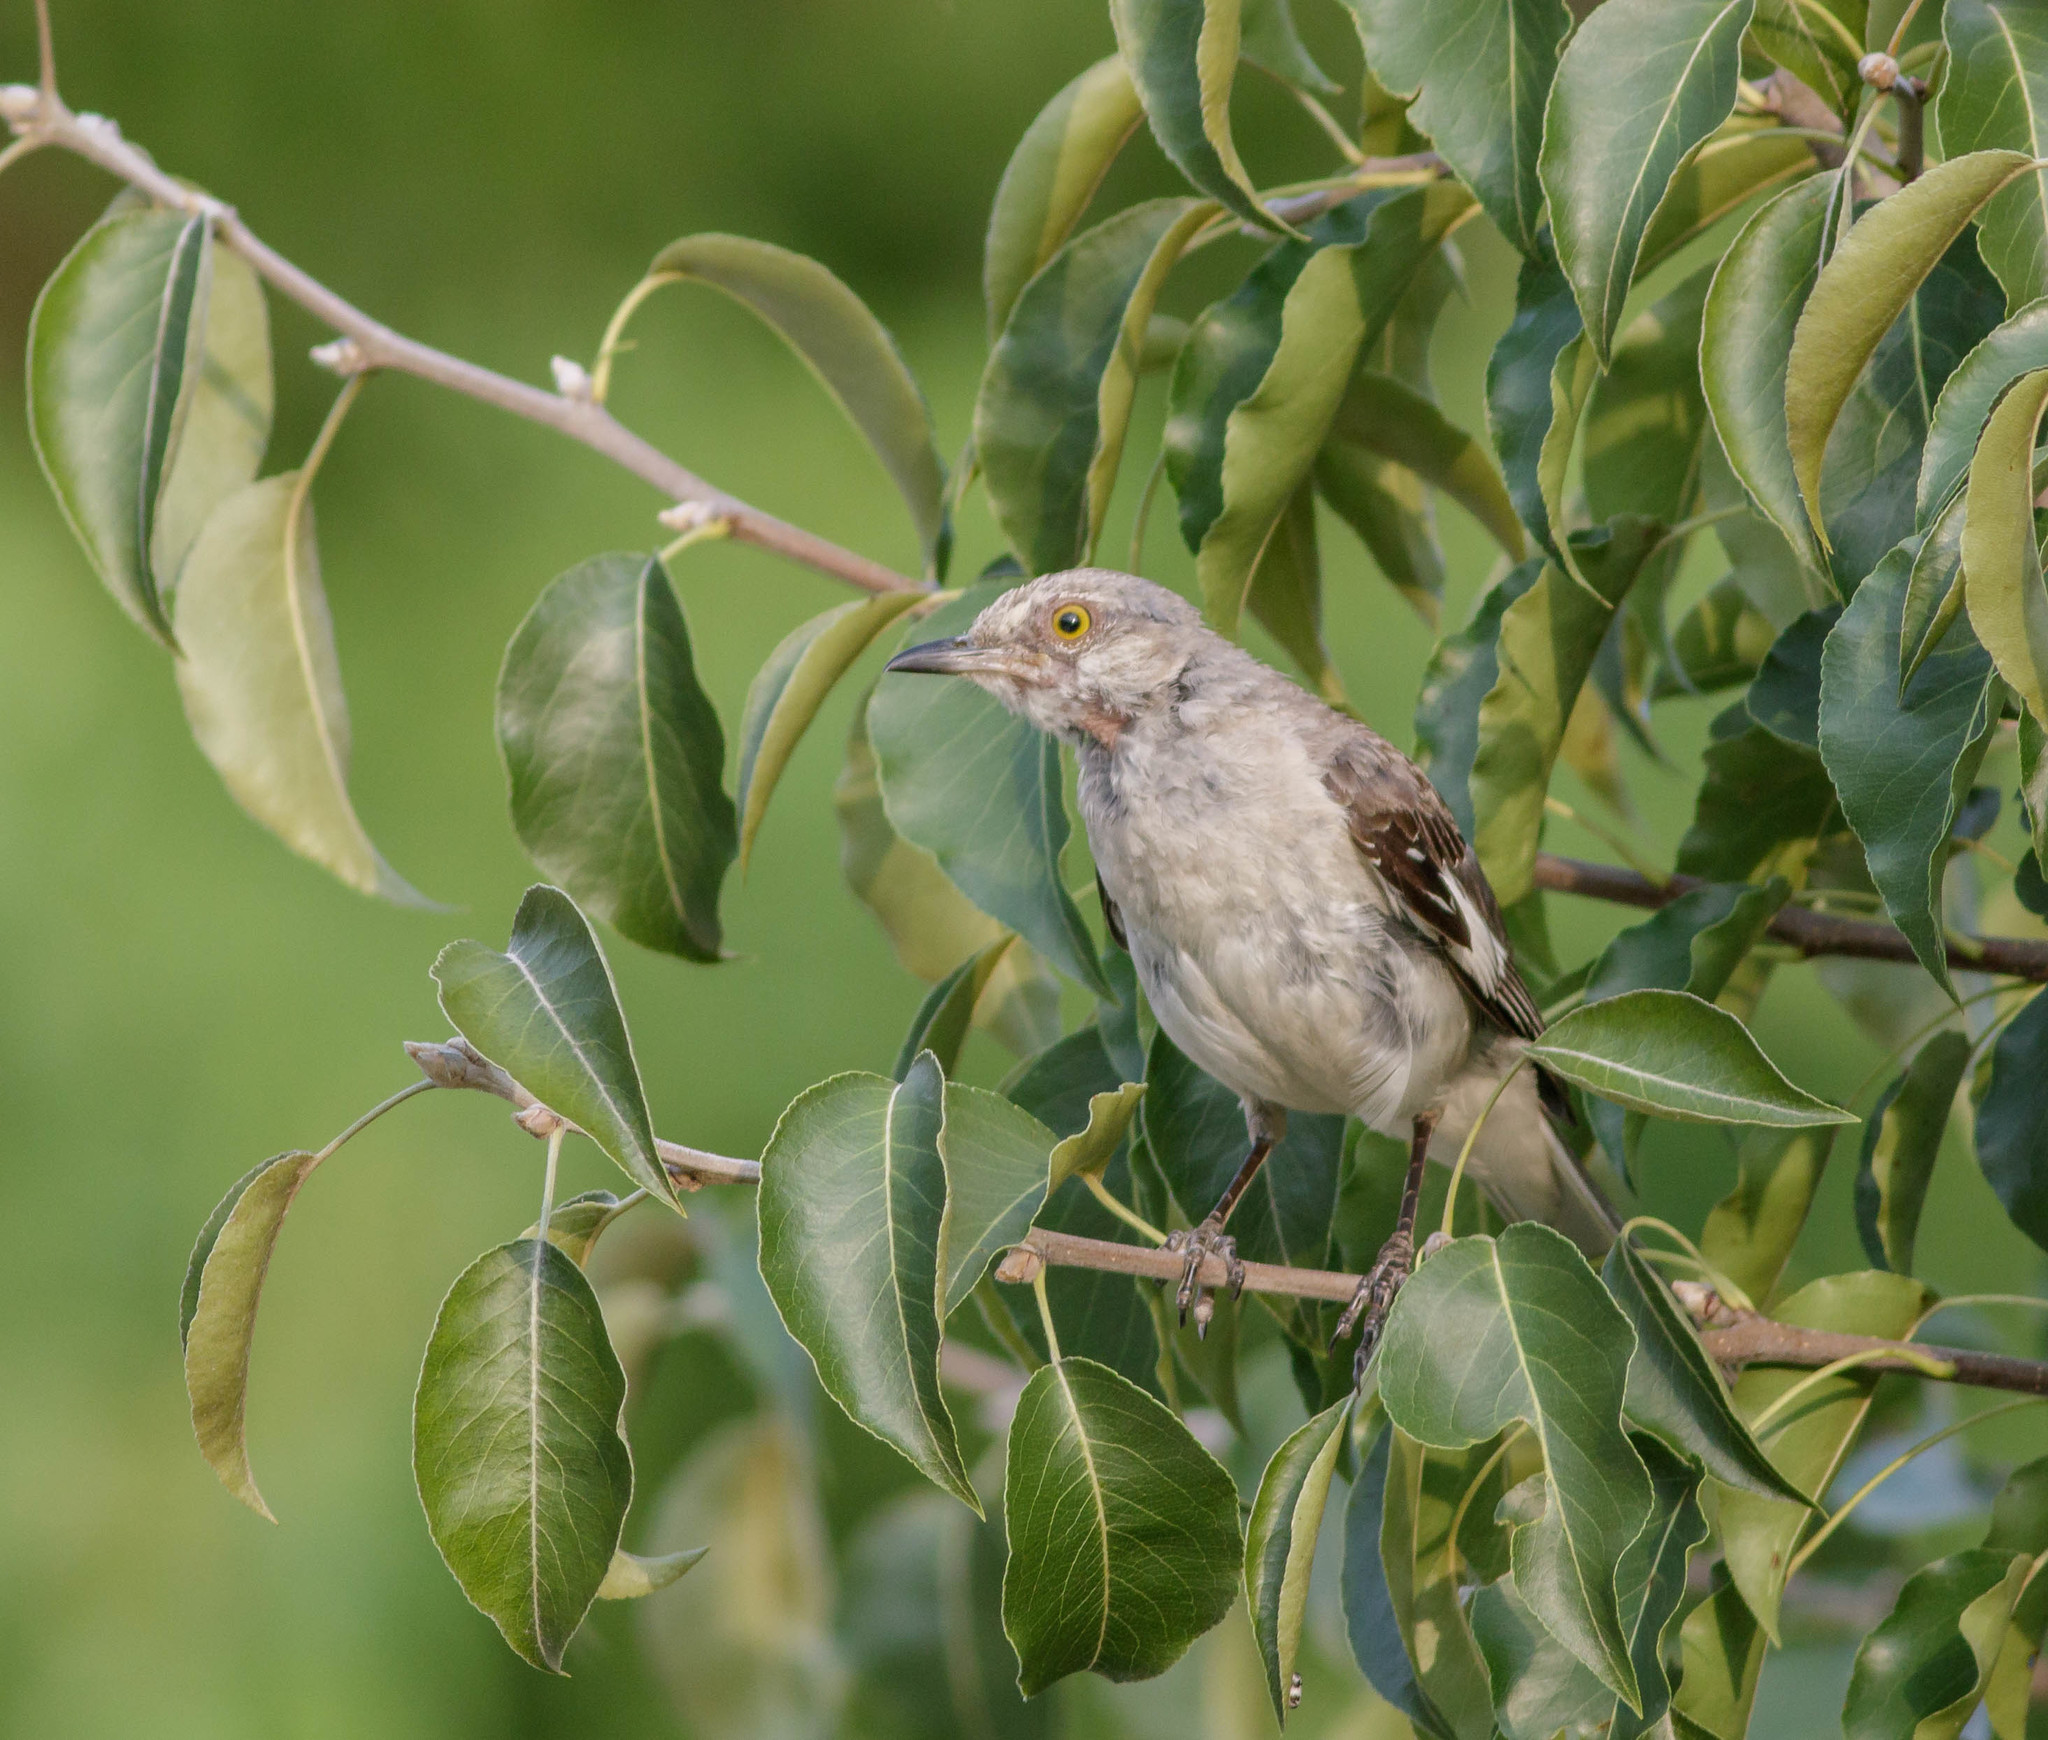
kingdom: Animalia
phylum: Chordata
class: Aves
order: Passeriformes
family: Mimidae
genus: Mimus
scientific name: Mimus polyglottos
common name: Northern mockingbird
